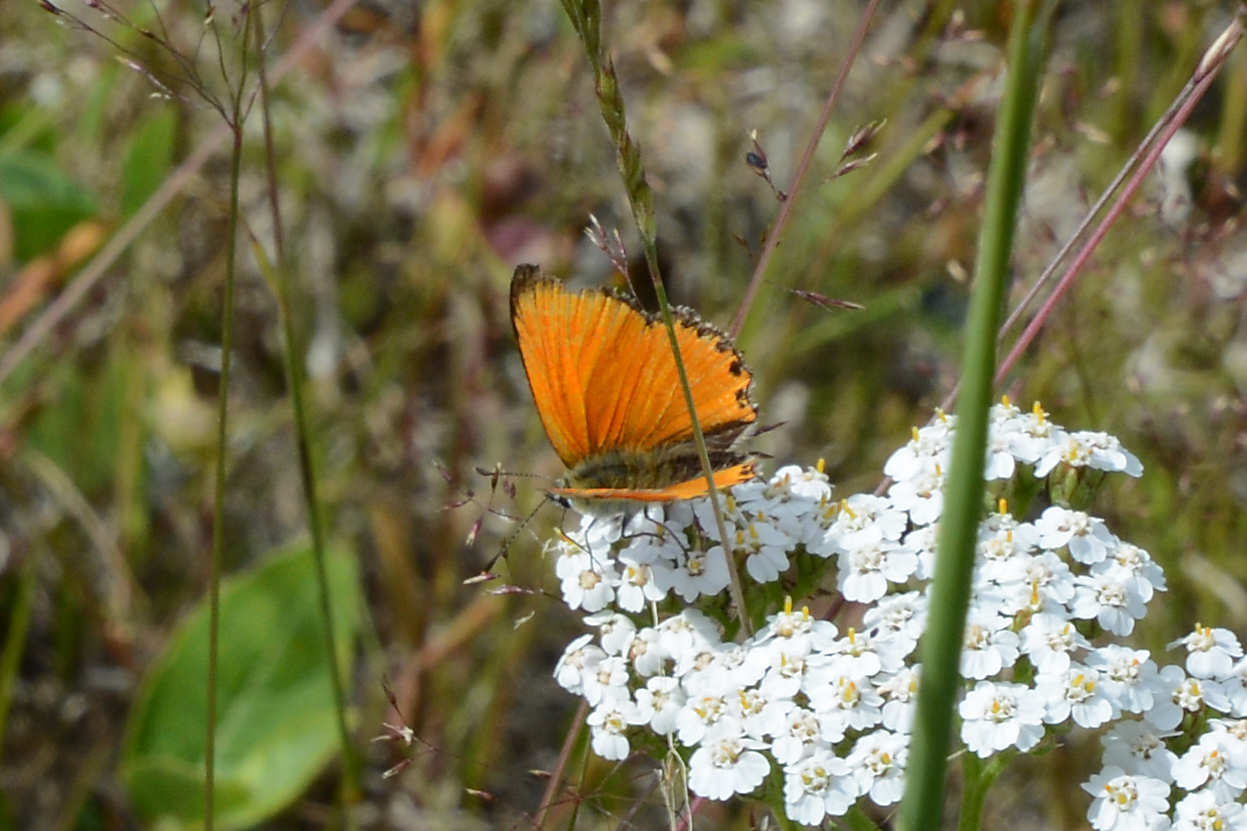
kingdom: Animalia
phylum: Arthropoda
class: Insecta
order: Lepidoptera
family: Lycaenidae
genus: Lycaena
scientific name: Lycaena virgaureae
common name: Scarce copper
